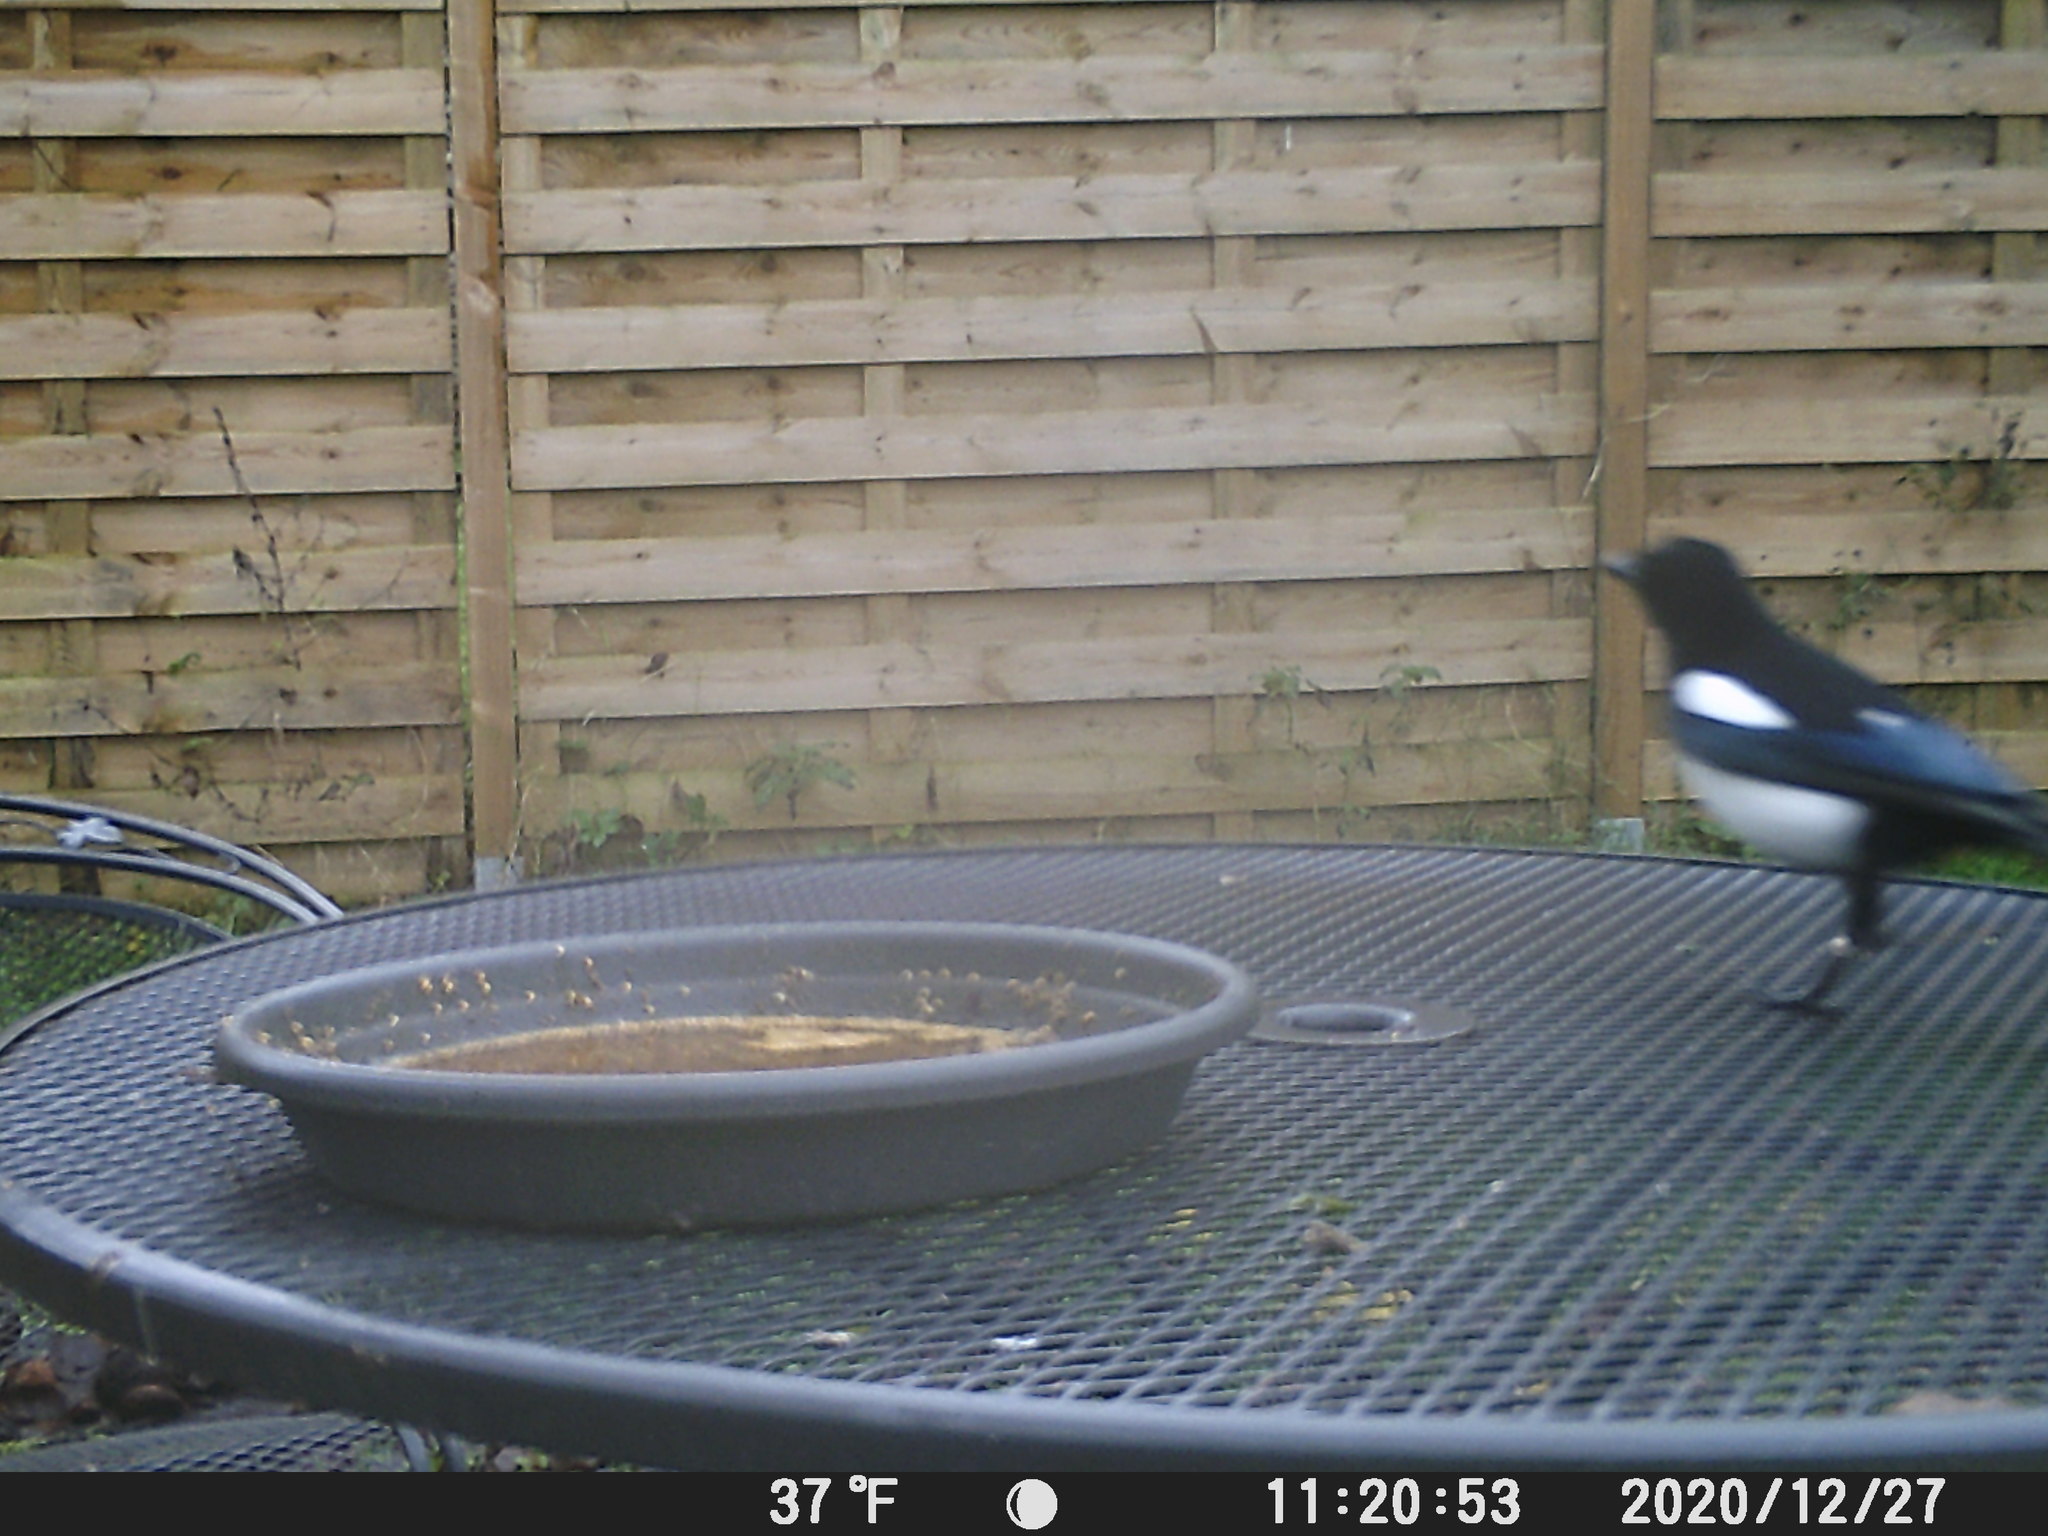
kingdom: Animalia
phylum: Chordata
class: Aves
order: Passeriformes
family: Corvidae
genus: Pica
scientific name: Pica pica
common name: Eurasian magpie
